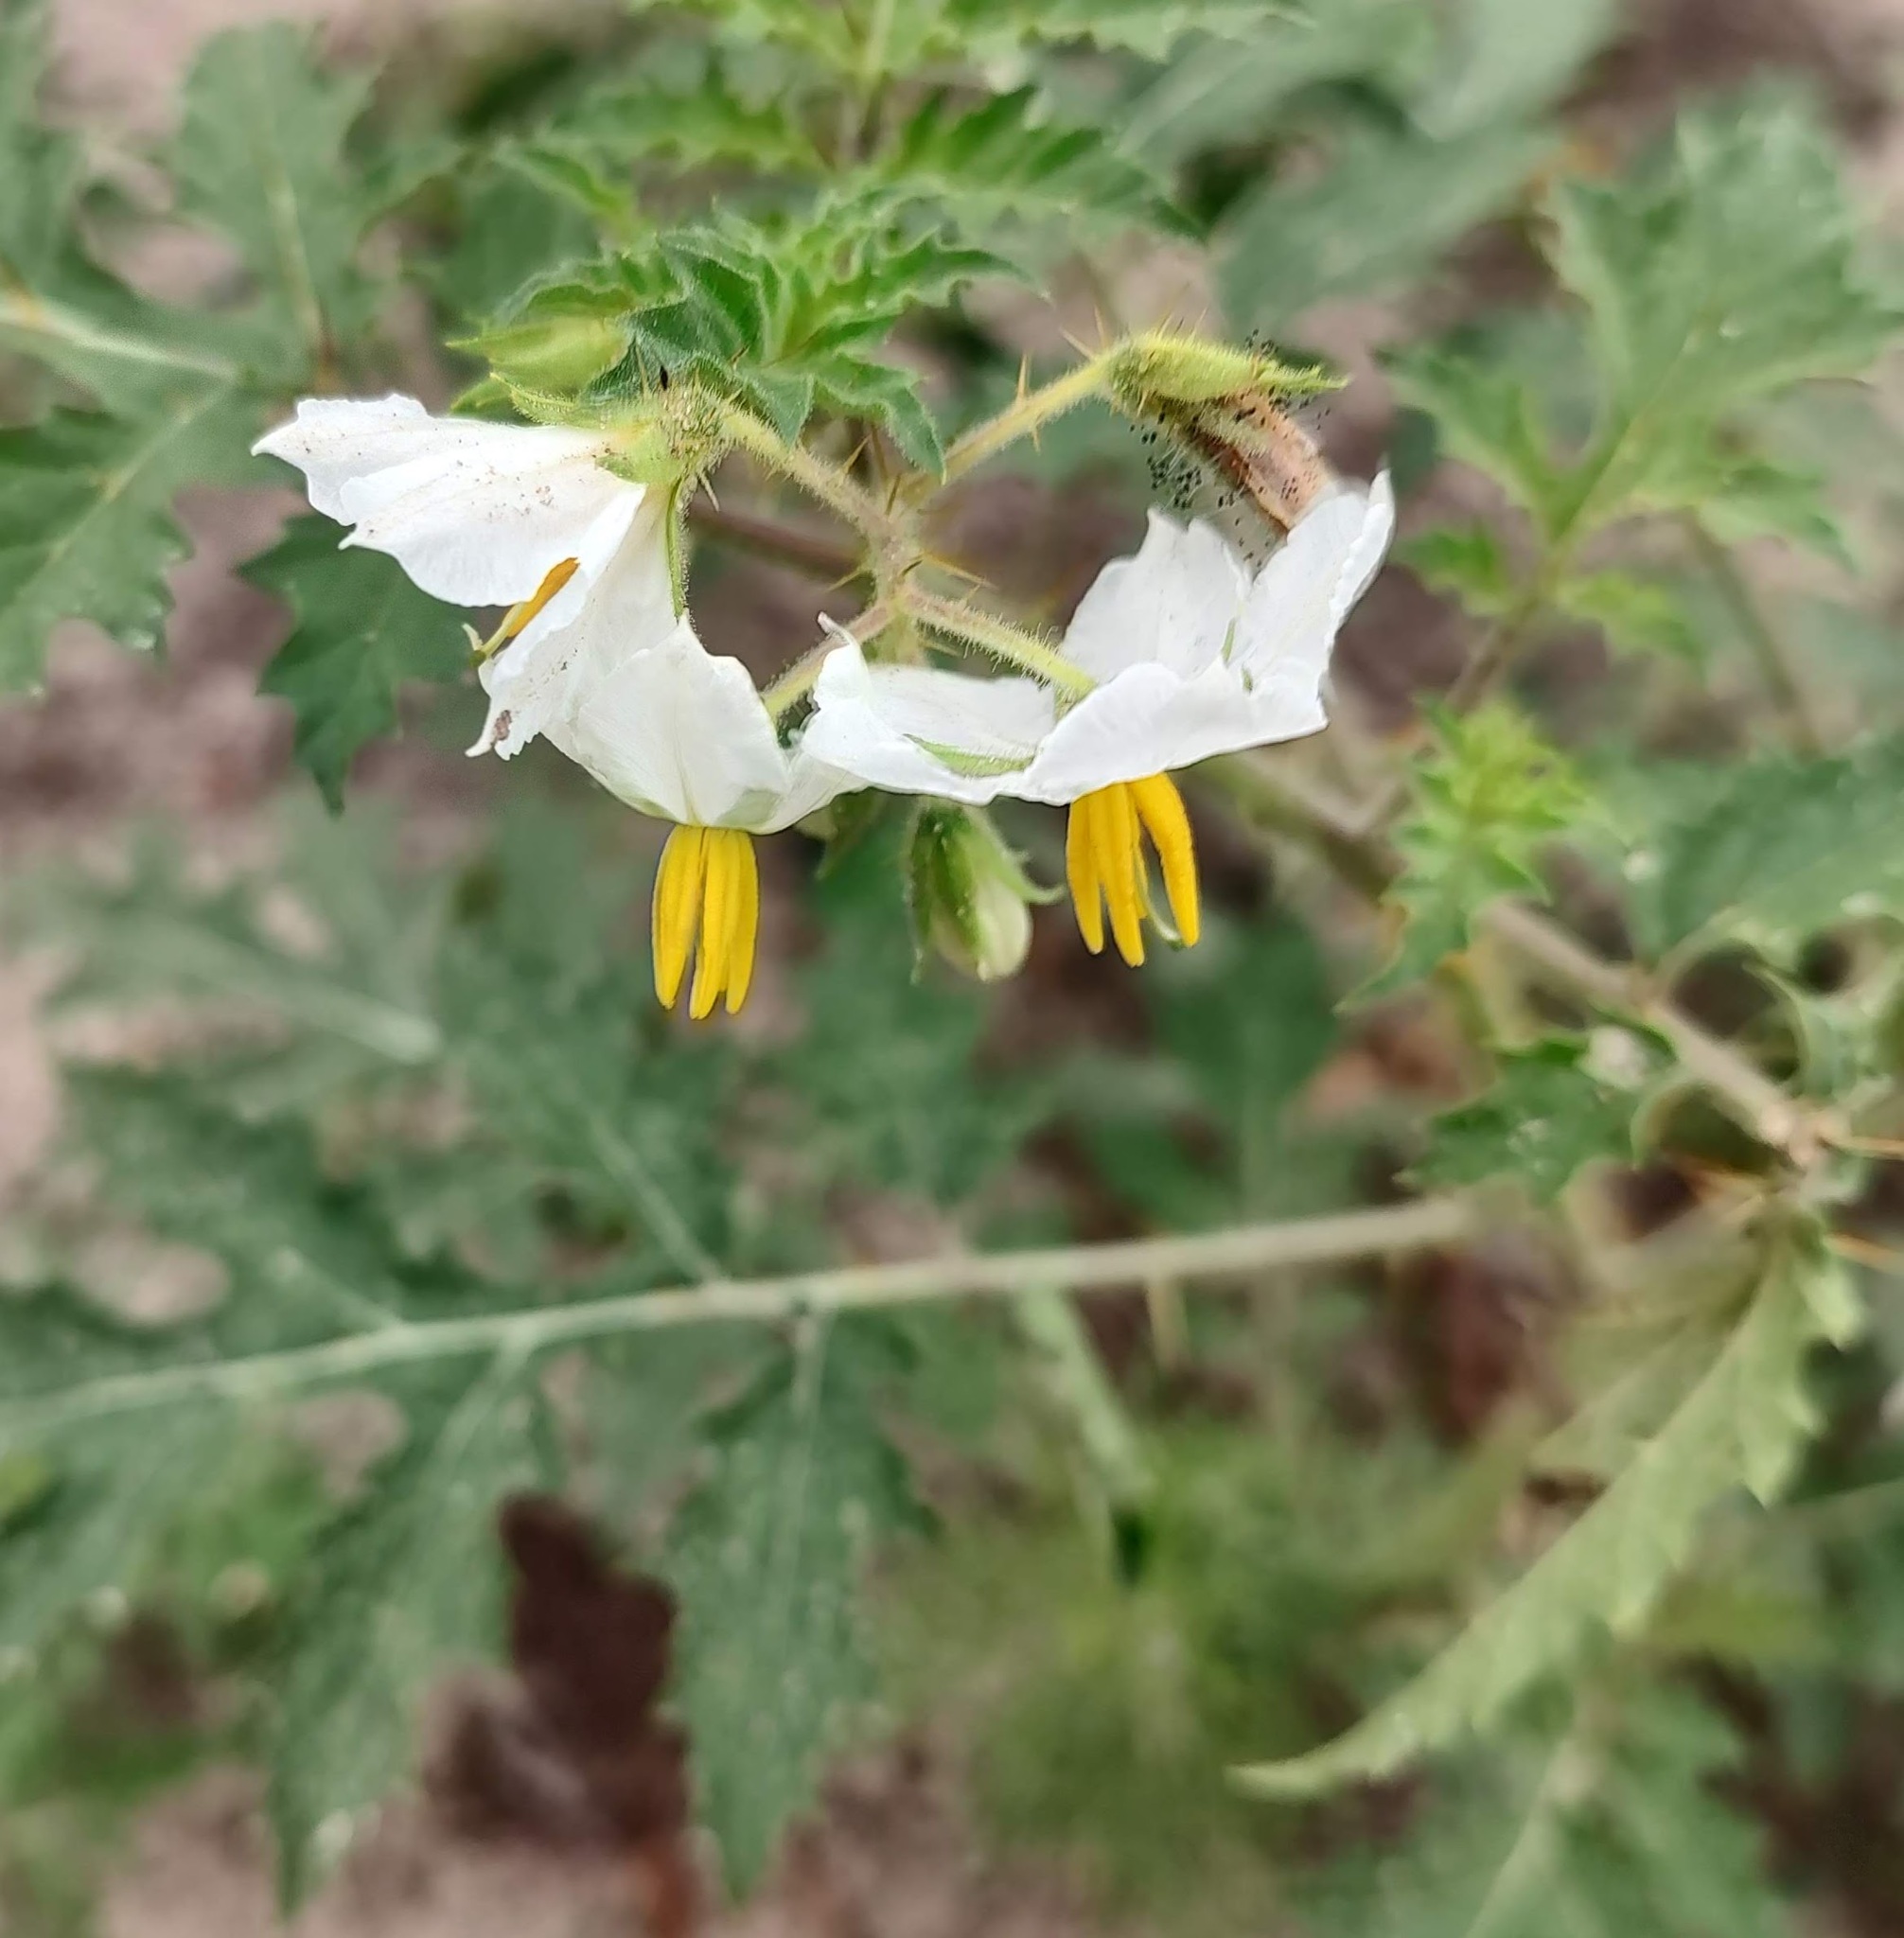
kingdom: Plantae
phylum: Tracheophyta
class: Magnoliopsida
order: Solanales
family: Solanaceae
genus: Solanum
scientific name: Solanum sisymbriifolium
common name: Red buffalo-bur
